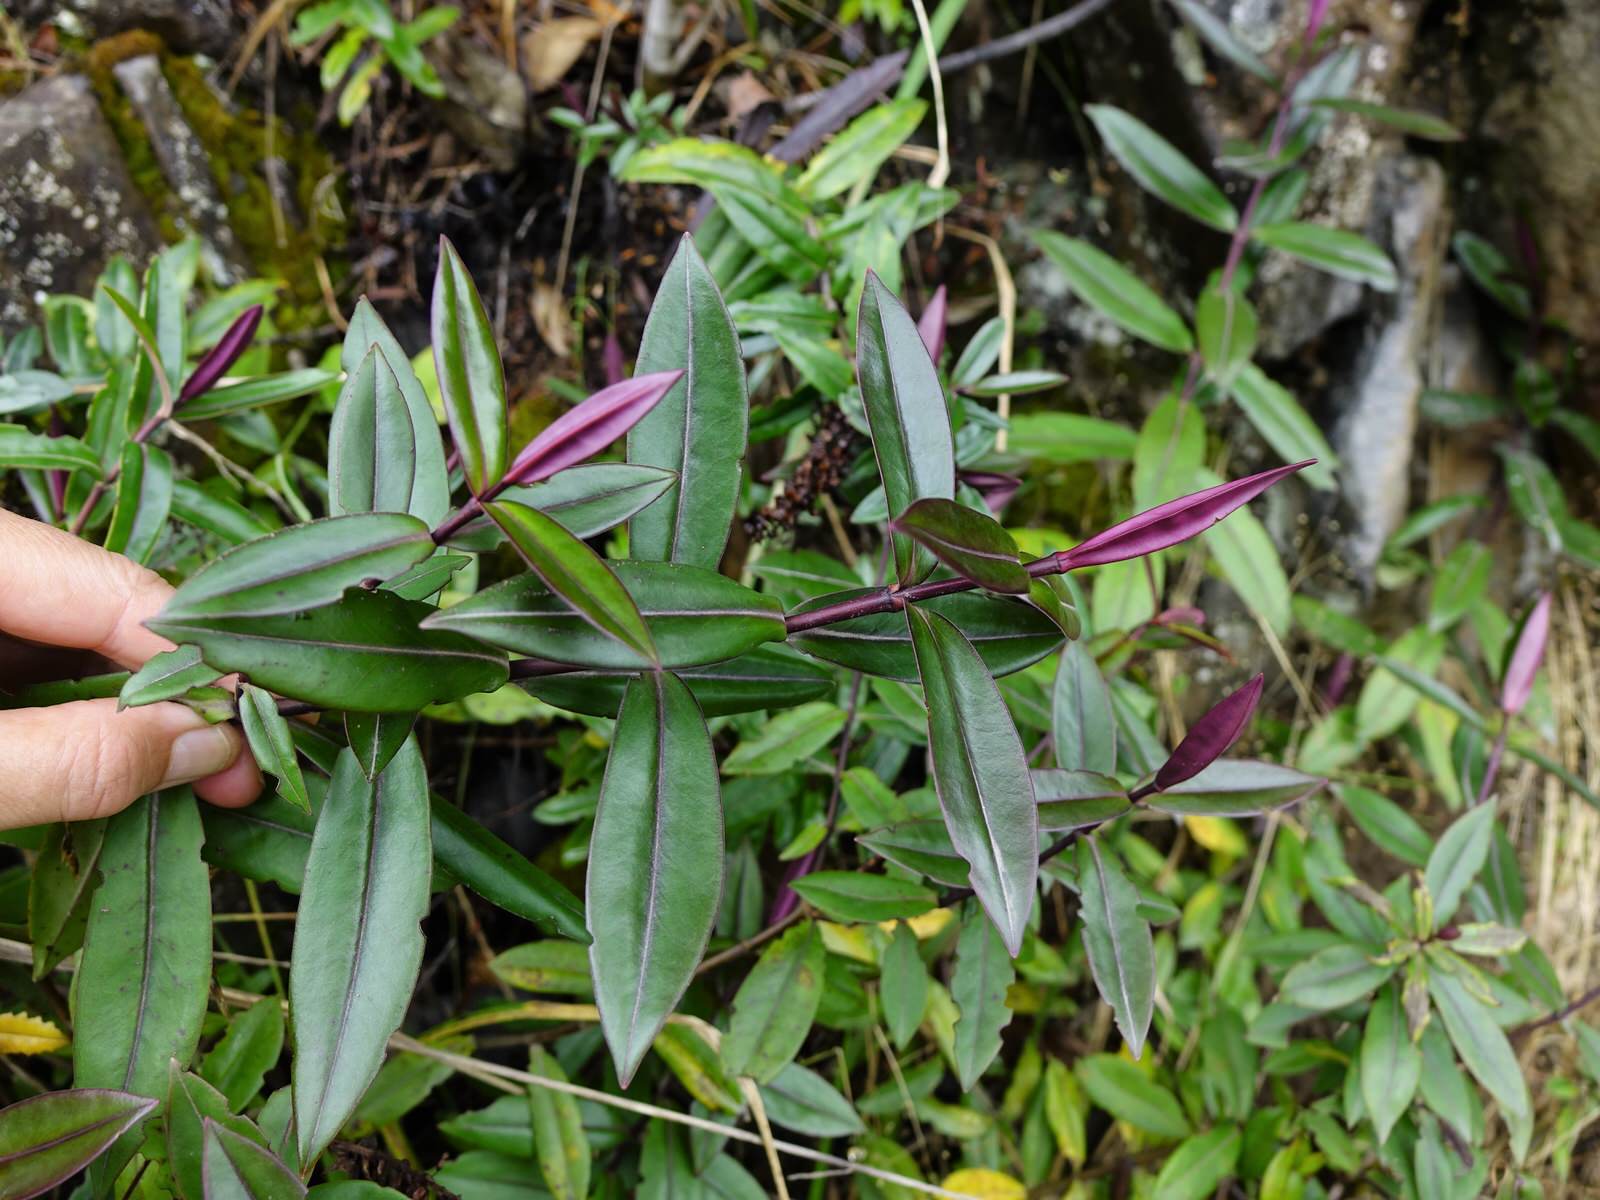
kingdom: Plantae
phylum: Tracheophyta
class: Magnoliopsida
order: Lamiales
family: Plantaginaceae
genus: Veronica
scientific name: Veronica bishopiana
